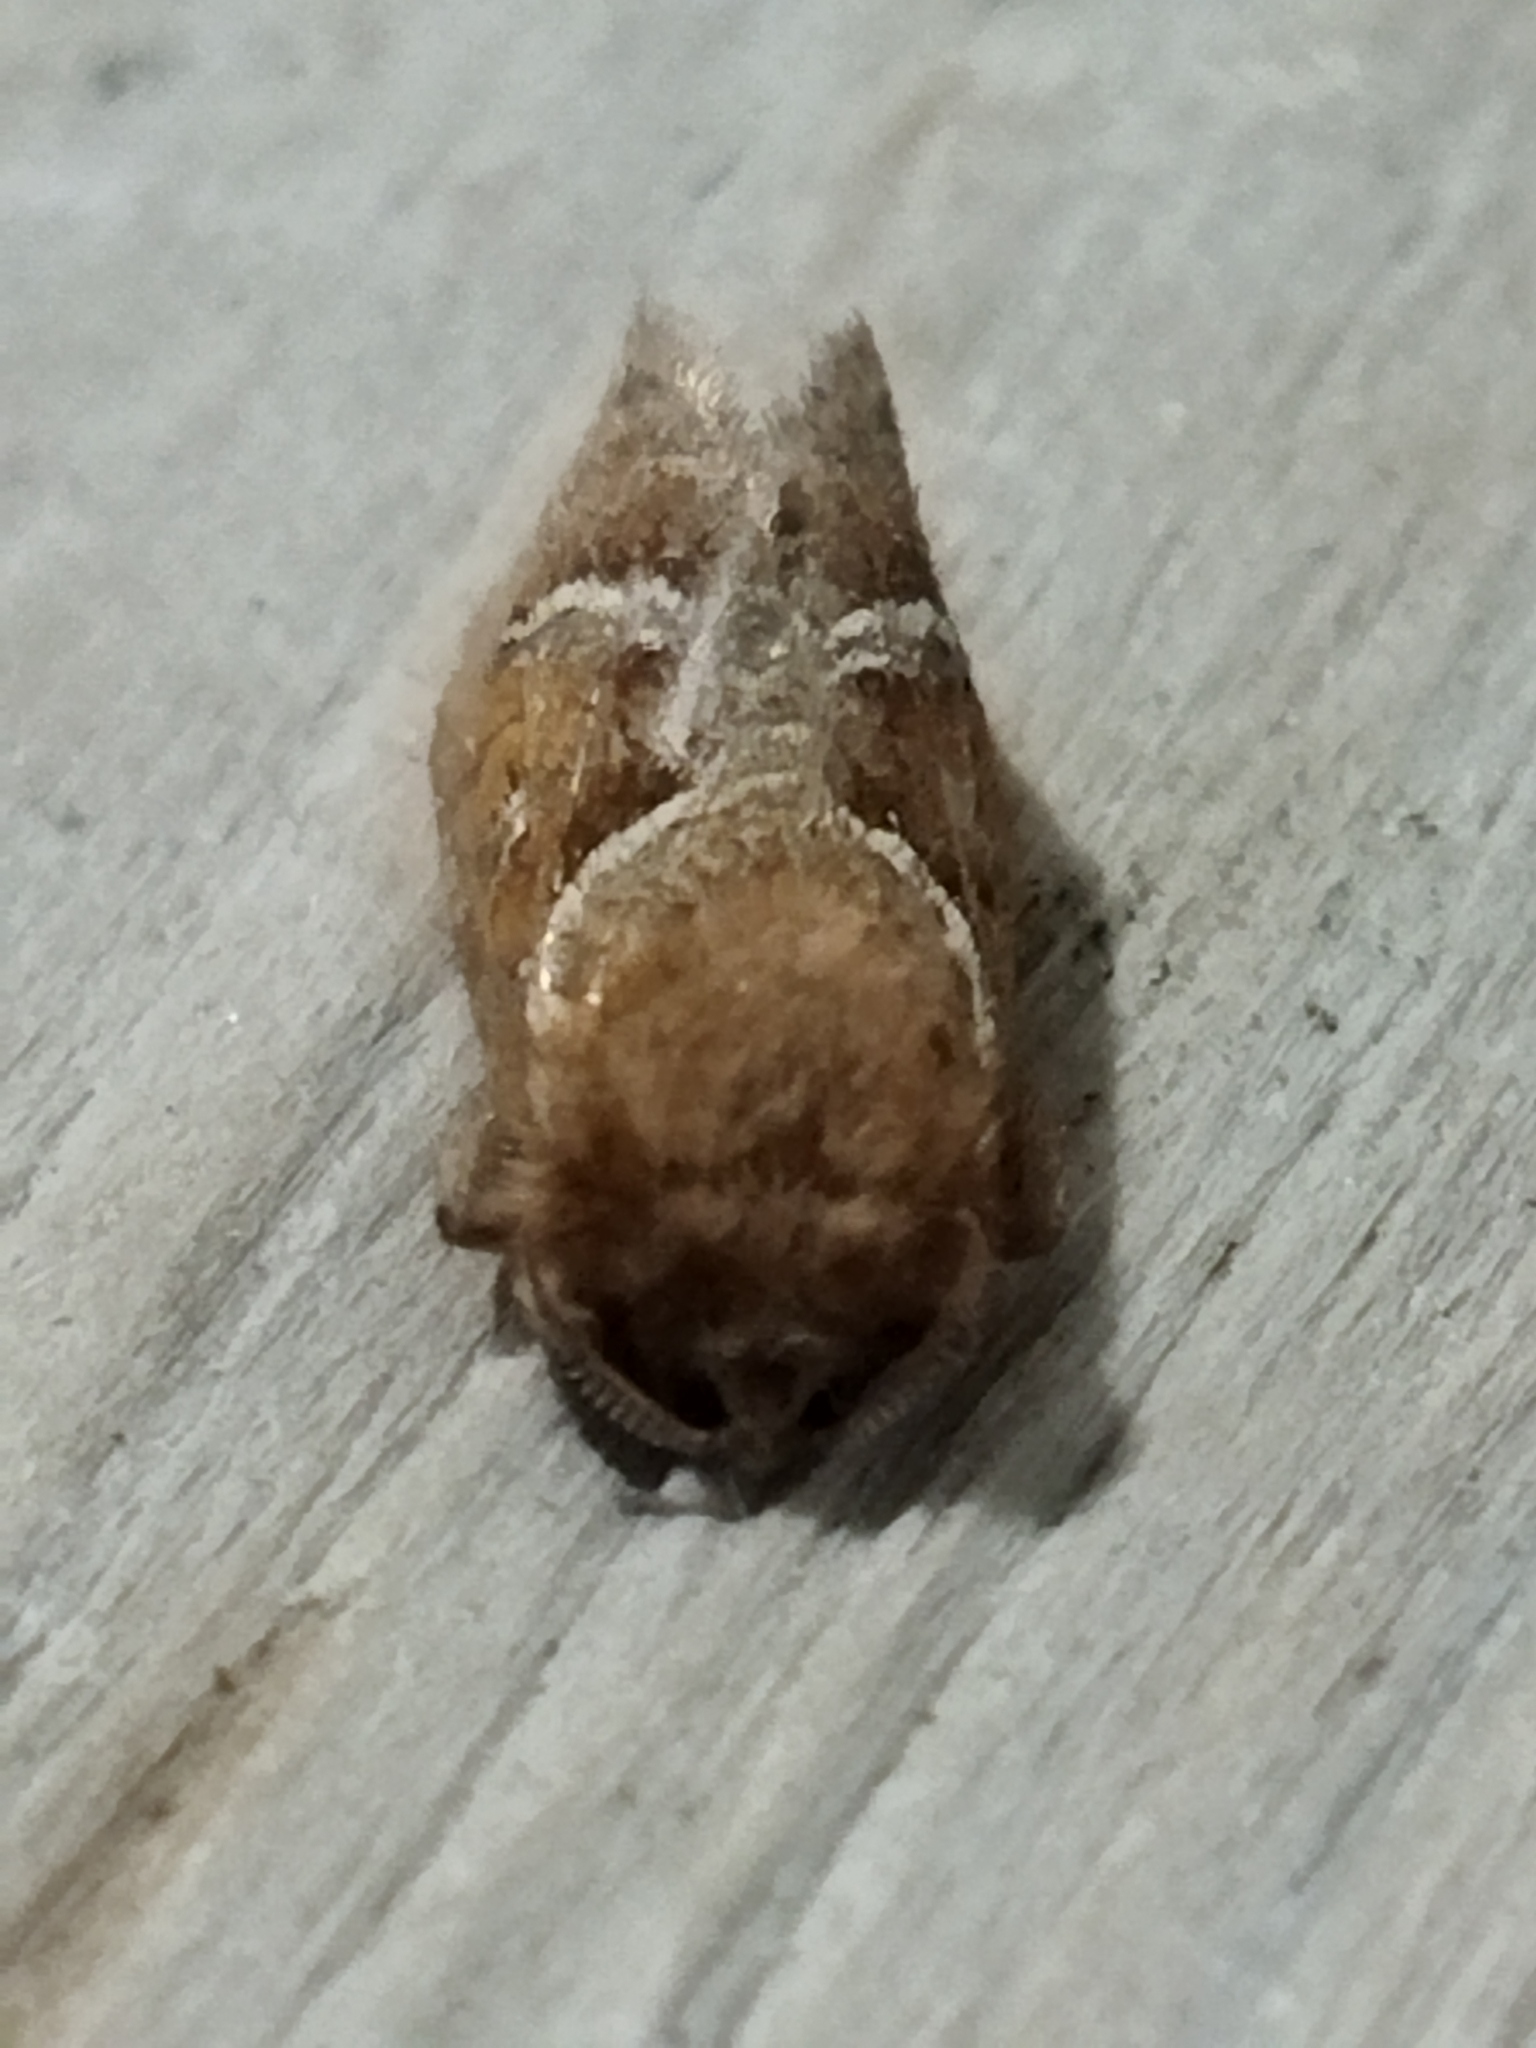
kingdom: Animalia
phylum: Arthropoda
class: Insecta
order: Lepidoptera
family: Hepialidae
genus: Triodia
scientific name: Triodia sylvina
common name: Orange swift
